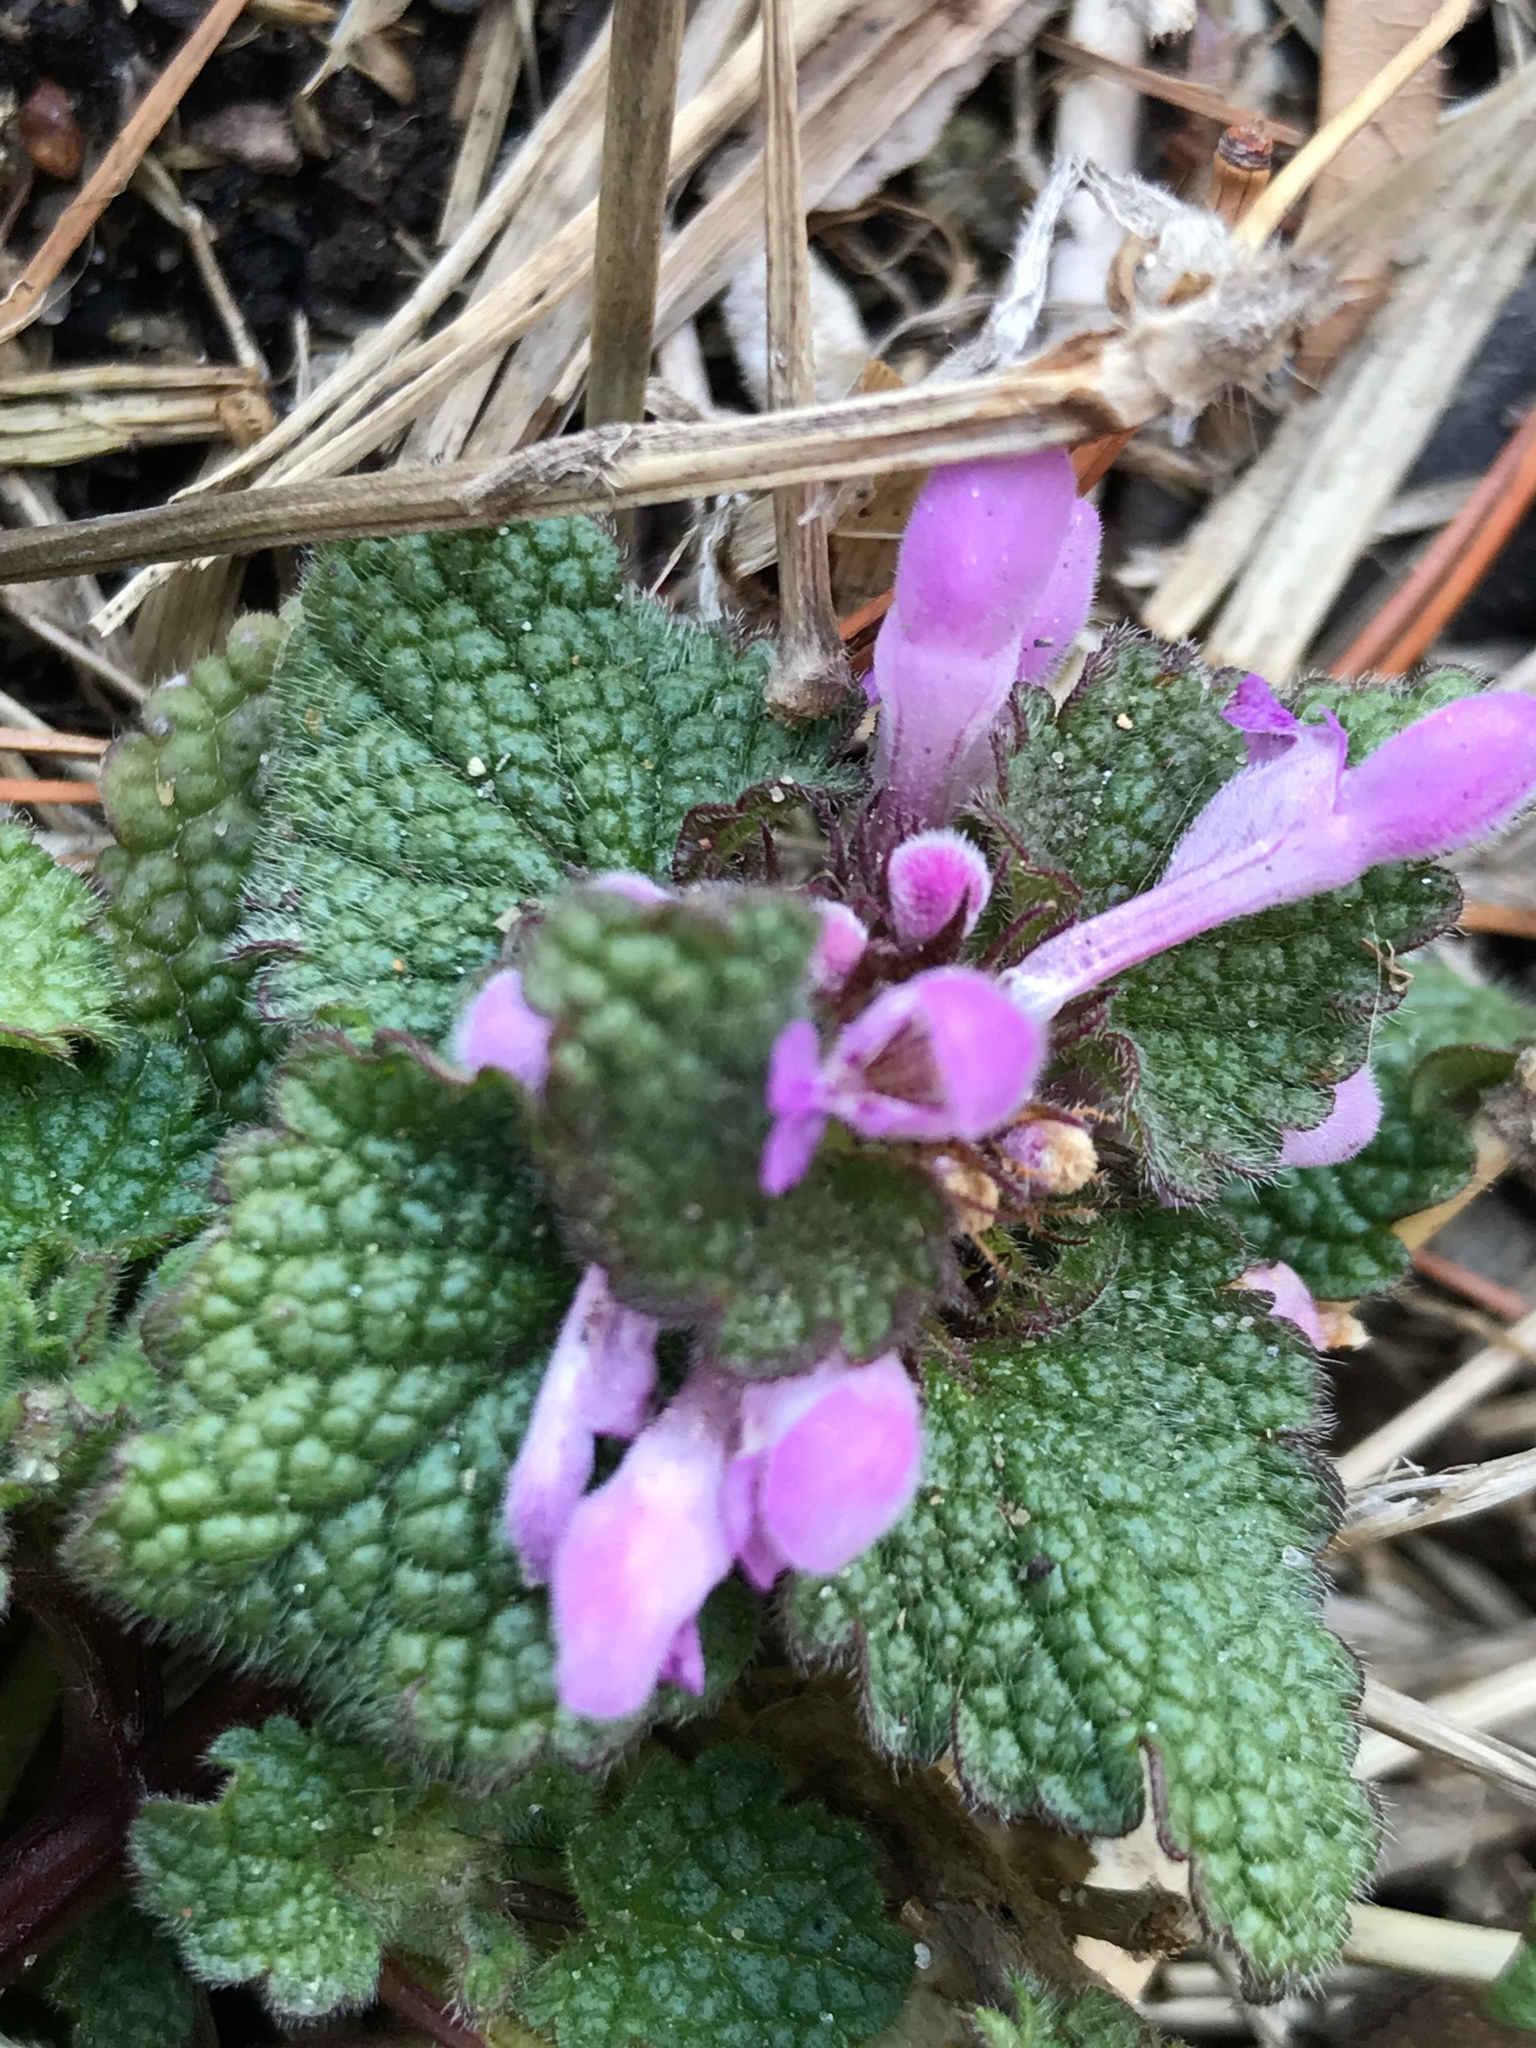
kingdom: Plantae
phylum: Tracheophyta
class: Magnoliopsida
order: Lamiales
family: Lamiaceae
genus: Lamium
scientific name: Lamium purpureum
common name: Red dead-nettle
